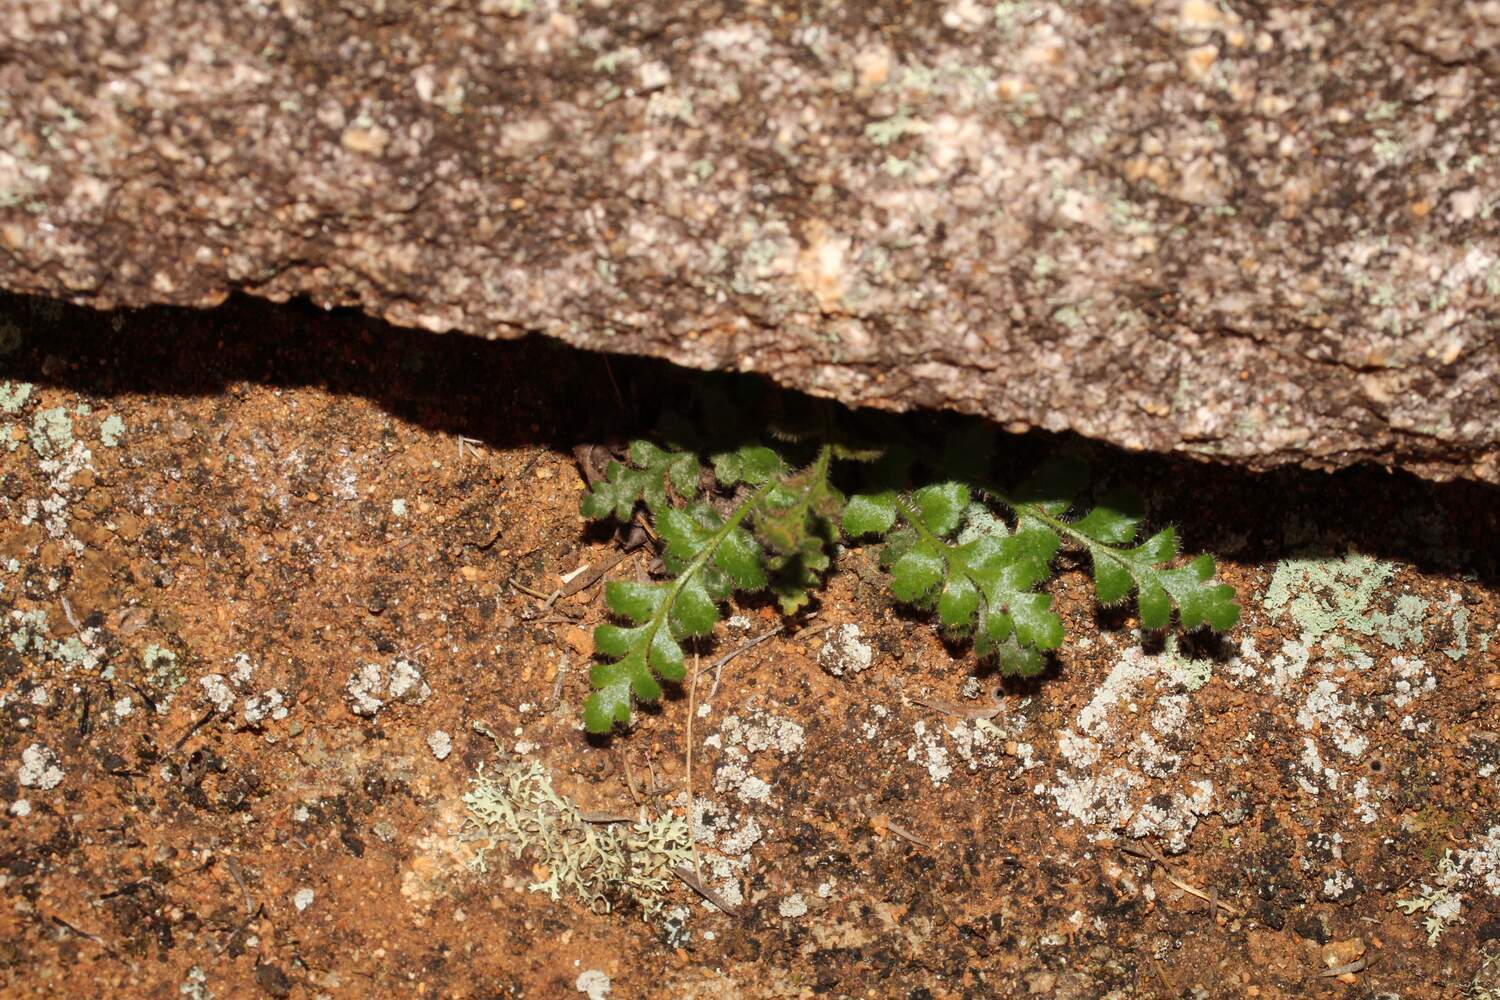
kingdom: Plantae
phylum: Tracheophyta
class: Polypodiopsida
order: Polypodiales
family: Aspleniaceae
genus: Asplenium
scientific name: Asplenium subglandulosum
